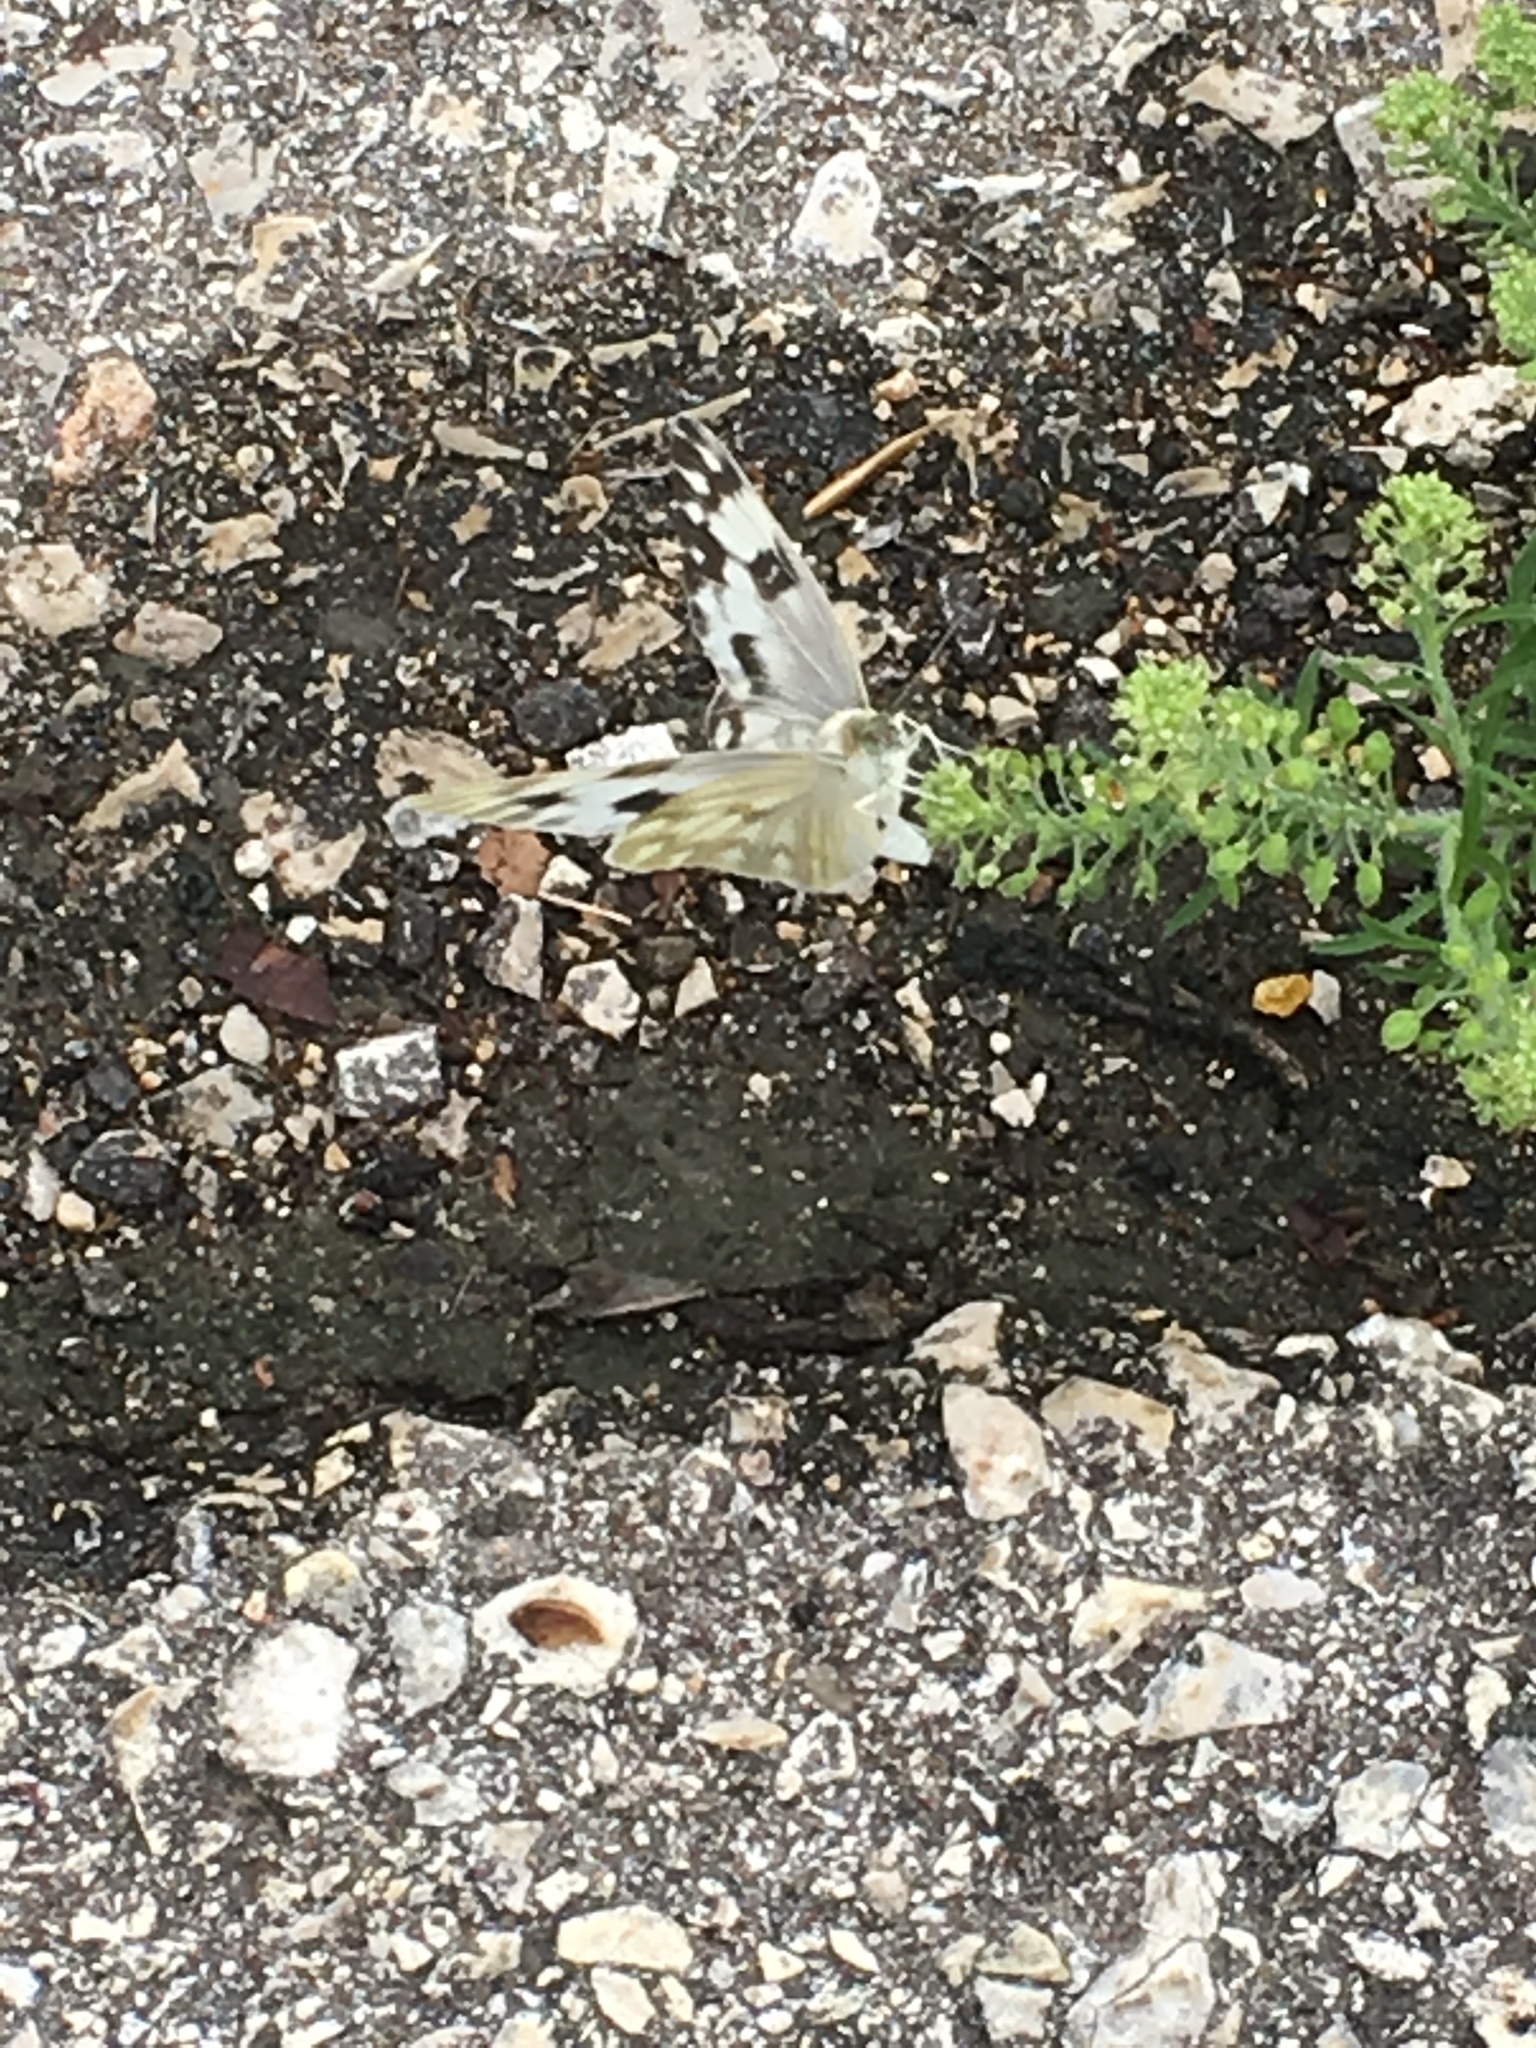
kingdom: Animalia
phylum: Arthropoda
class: Insecta
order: Lepidoptera
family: Pieridae
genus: Pontia
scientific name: Pontia protodice
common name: Checkered white
